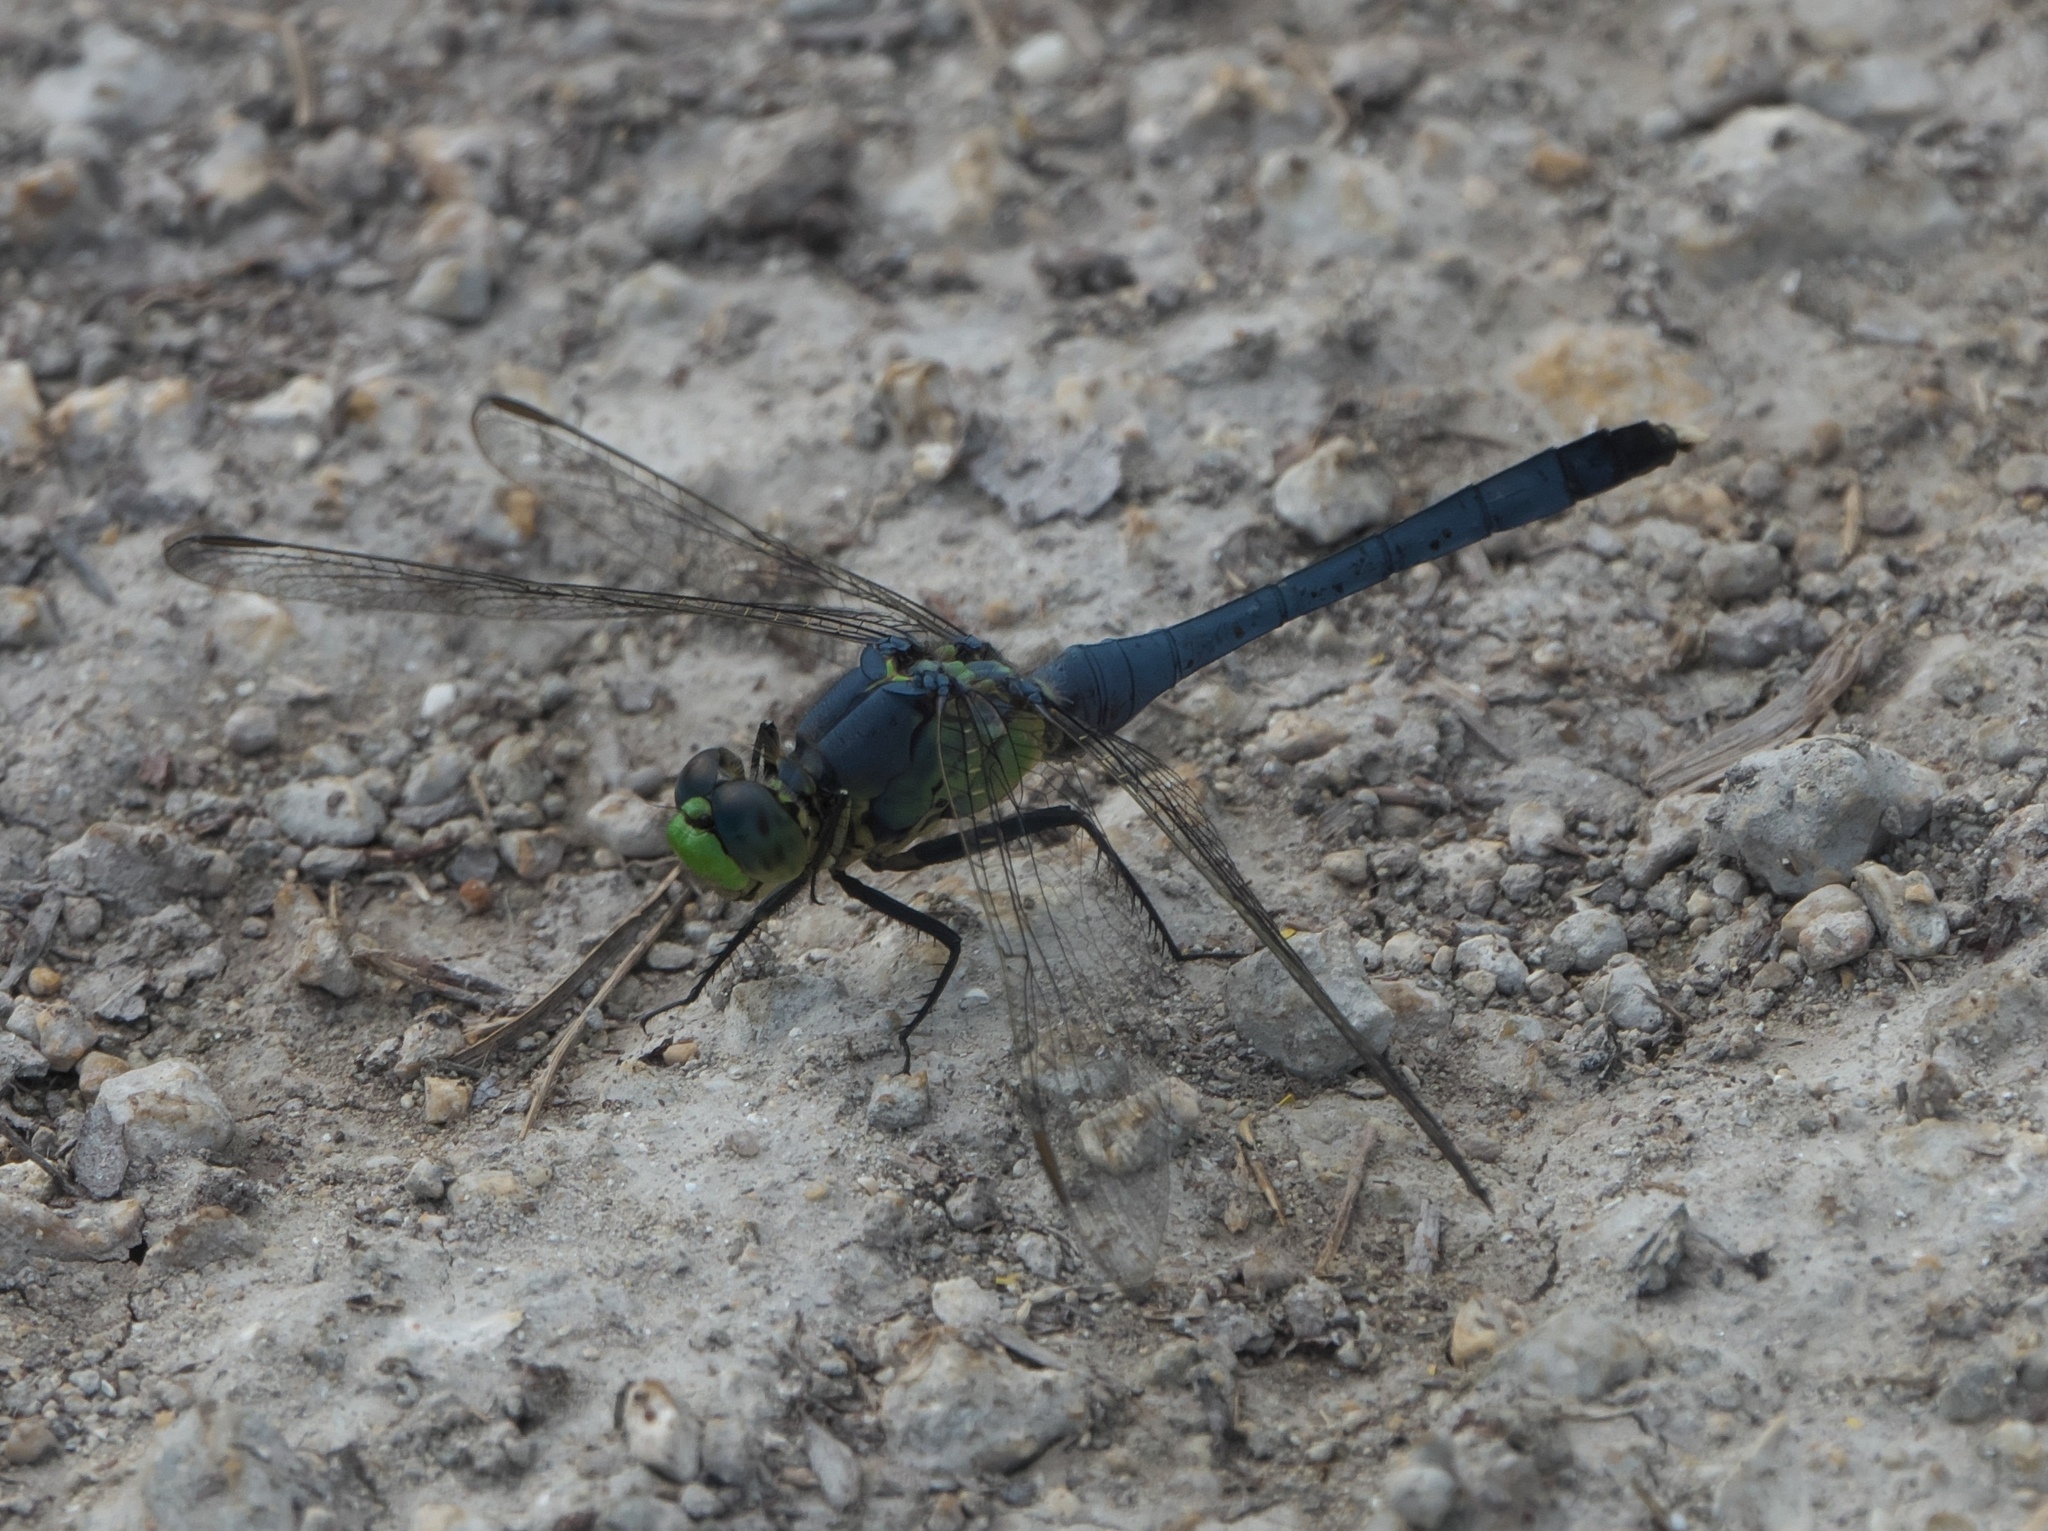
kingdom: Animalia
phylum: Arthropoda
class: Insecta
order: Odonata
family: Libellulidae
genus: Erythemis
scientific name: Erythemis simplicicollis
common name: Eastern pondhawk
